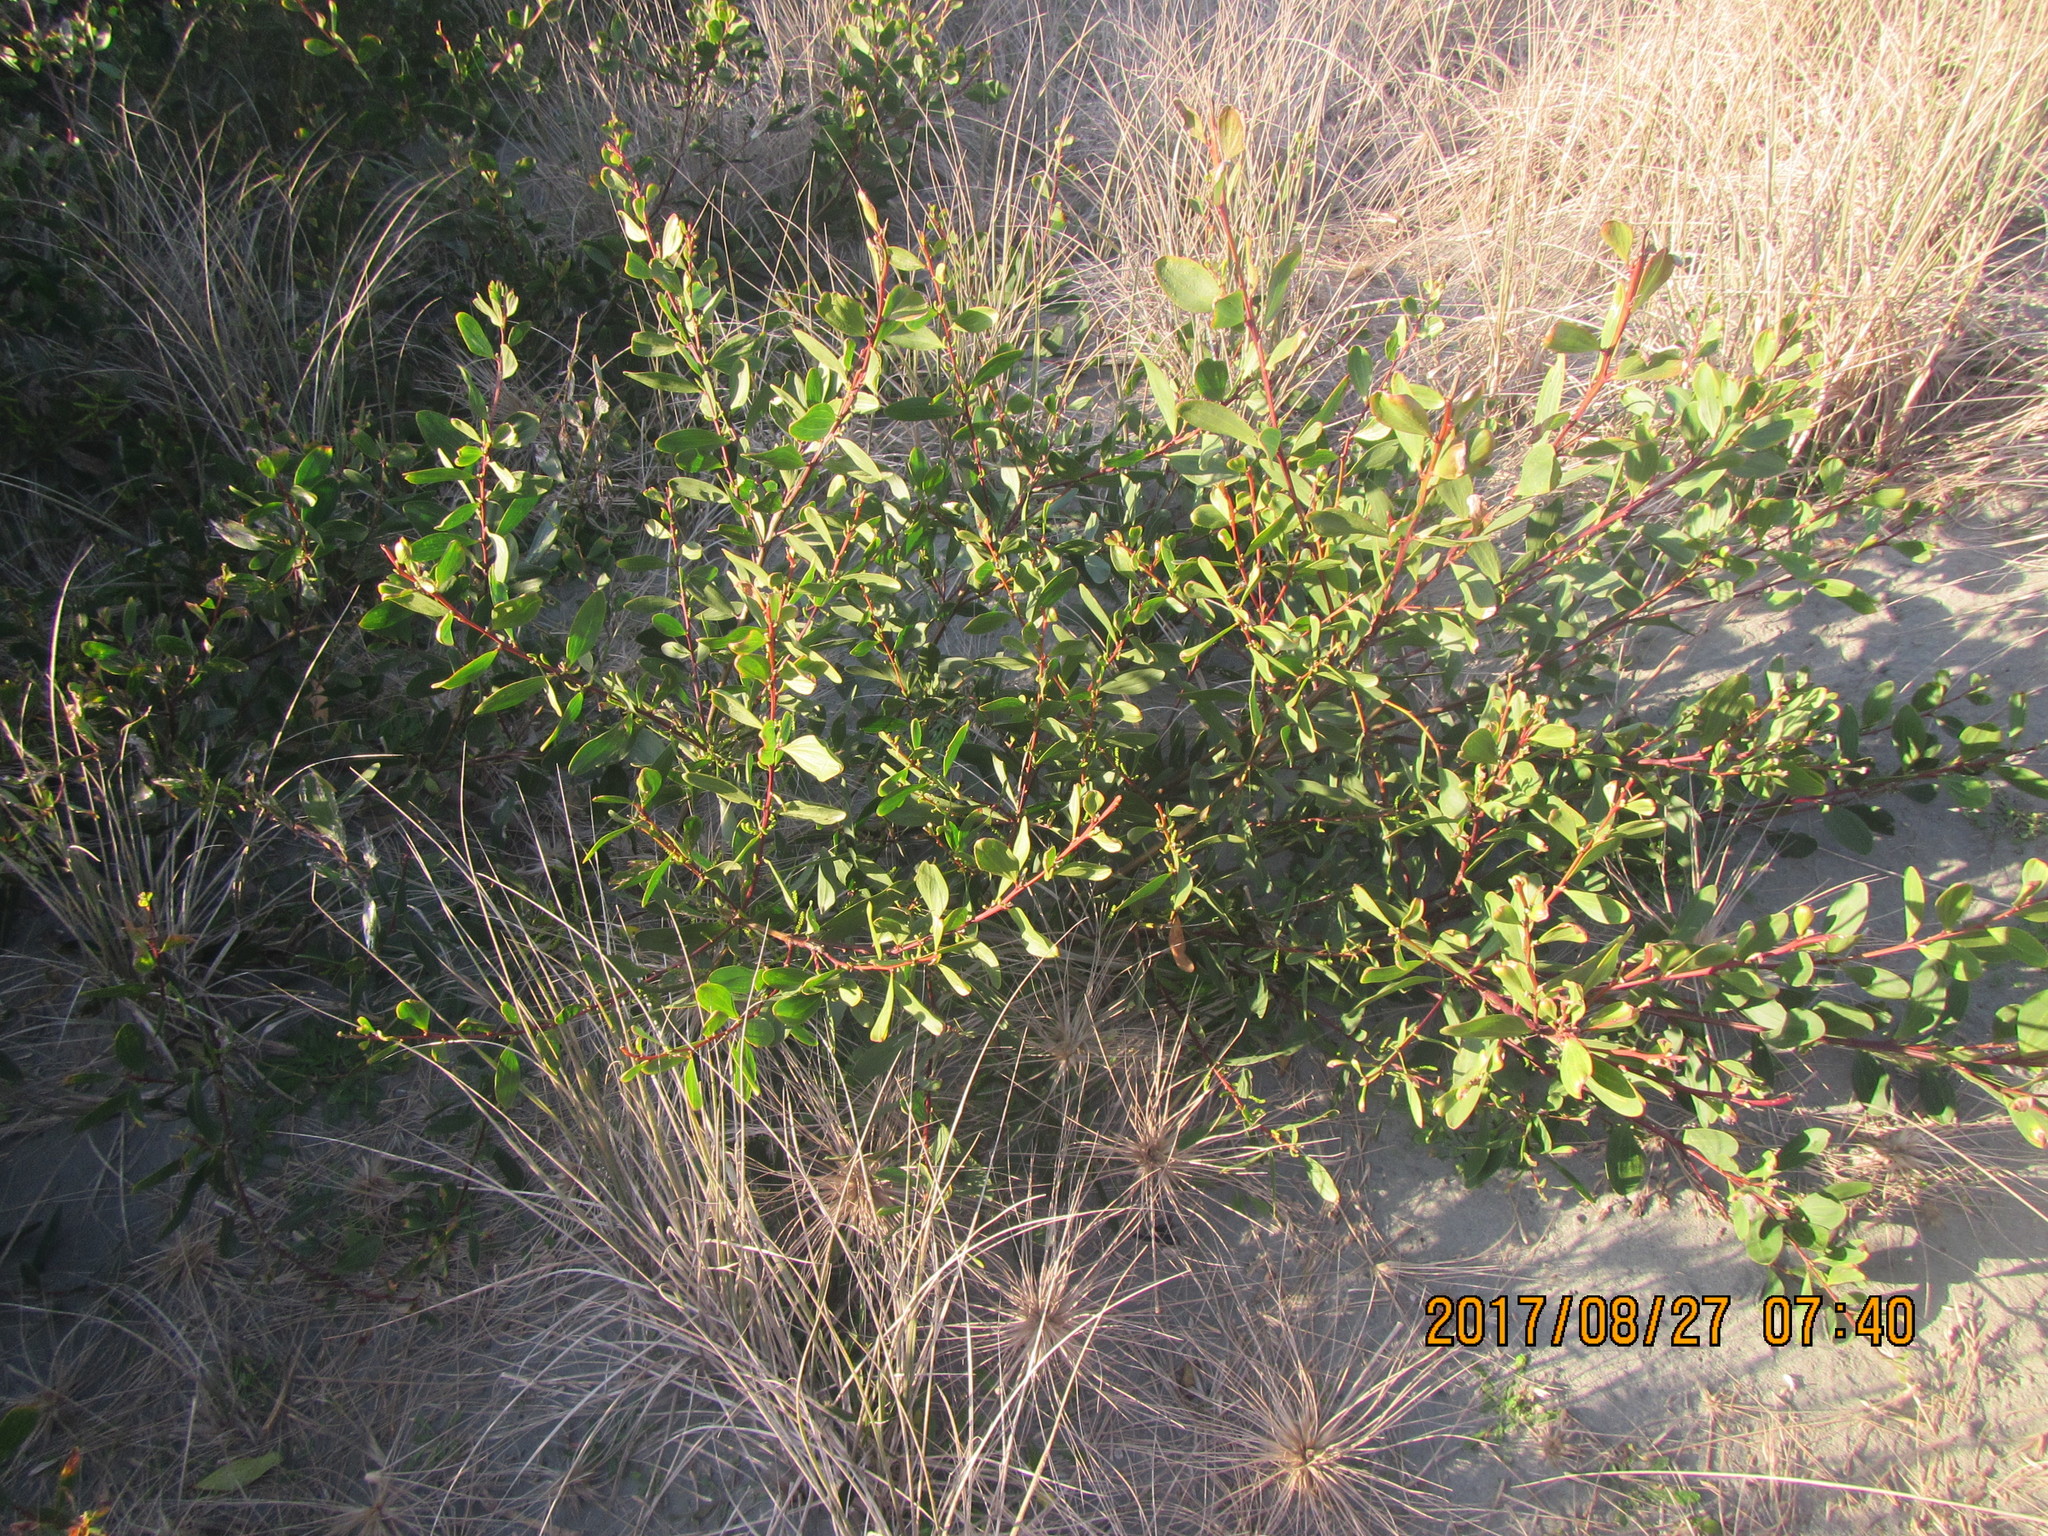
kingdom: Plantae
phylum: Tracheophyta
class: Magnoliopsida
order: Fabales
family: Fabaceae
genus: Acacia
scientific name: Acacia longifolia
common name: Sydney golden wattle
